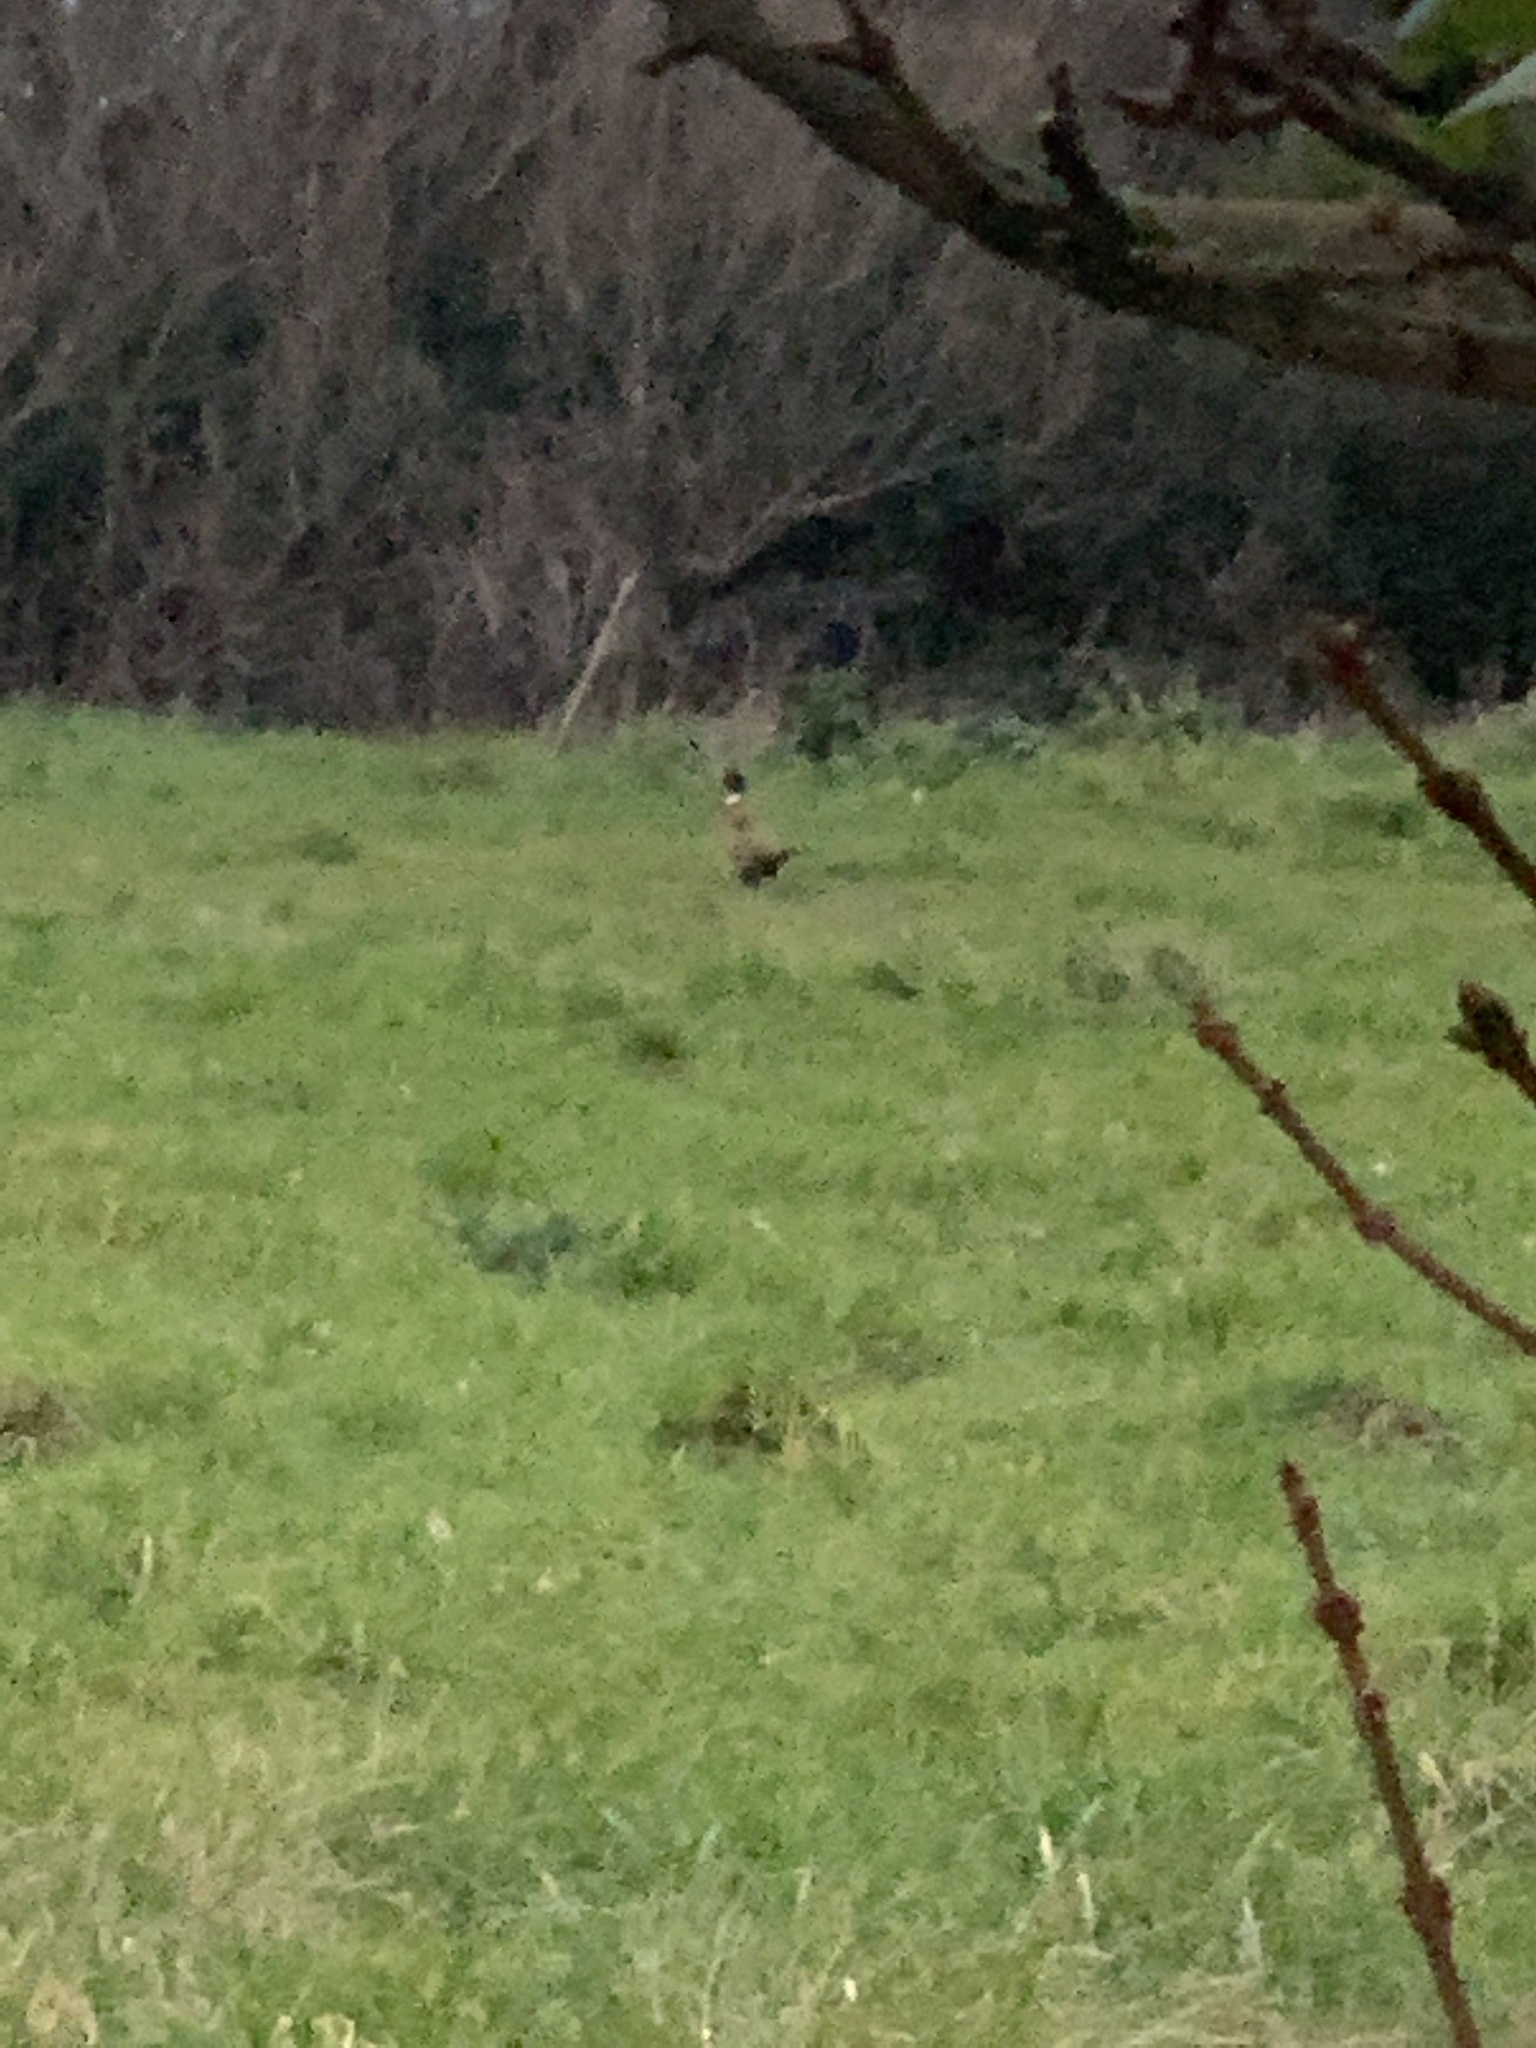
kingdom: Animalia
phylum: Chordata
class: Aves
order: Galliformes
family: Phasianidae
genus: Phasianus
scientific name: Phasianus colchicus
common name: Common pheasant
